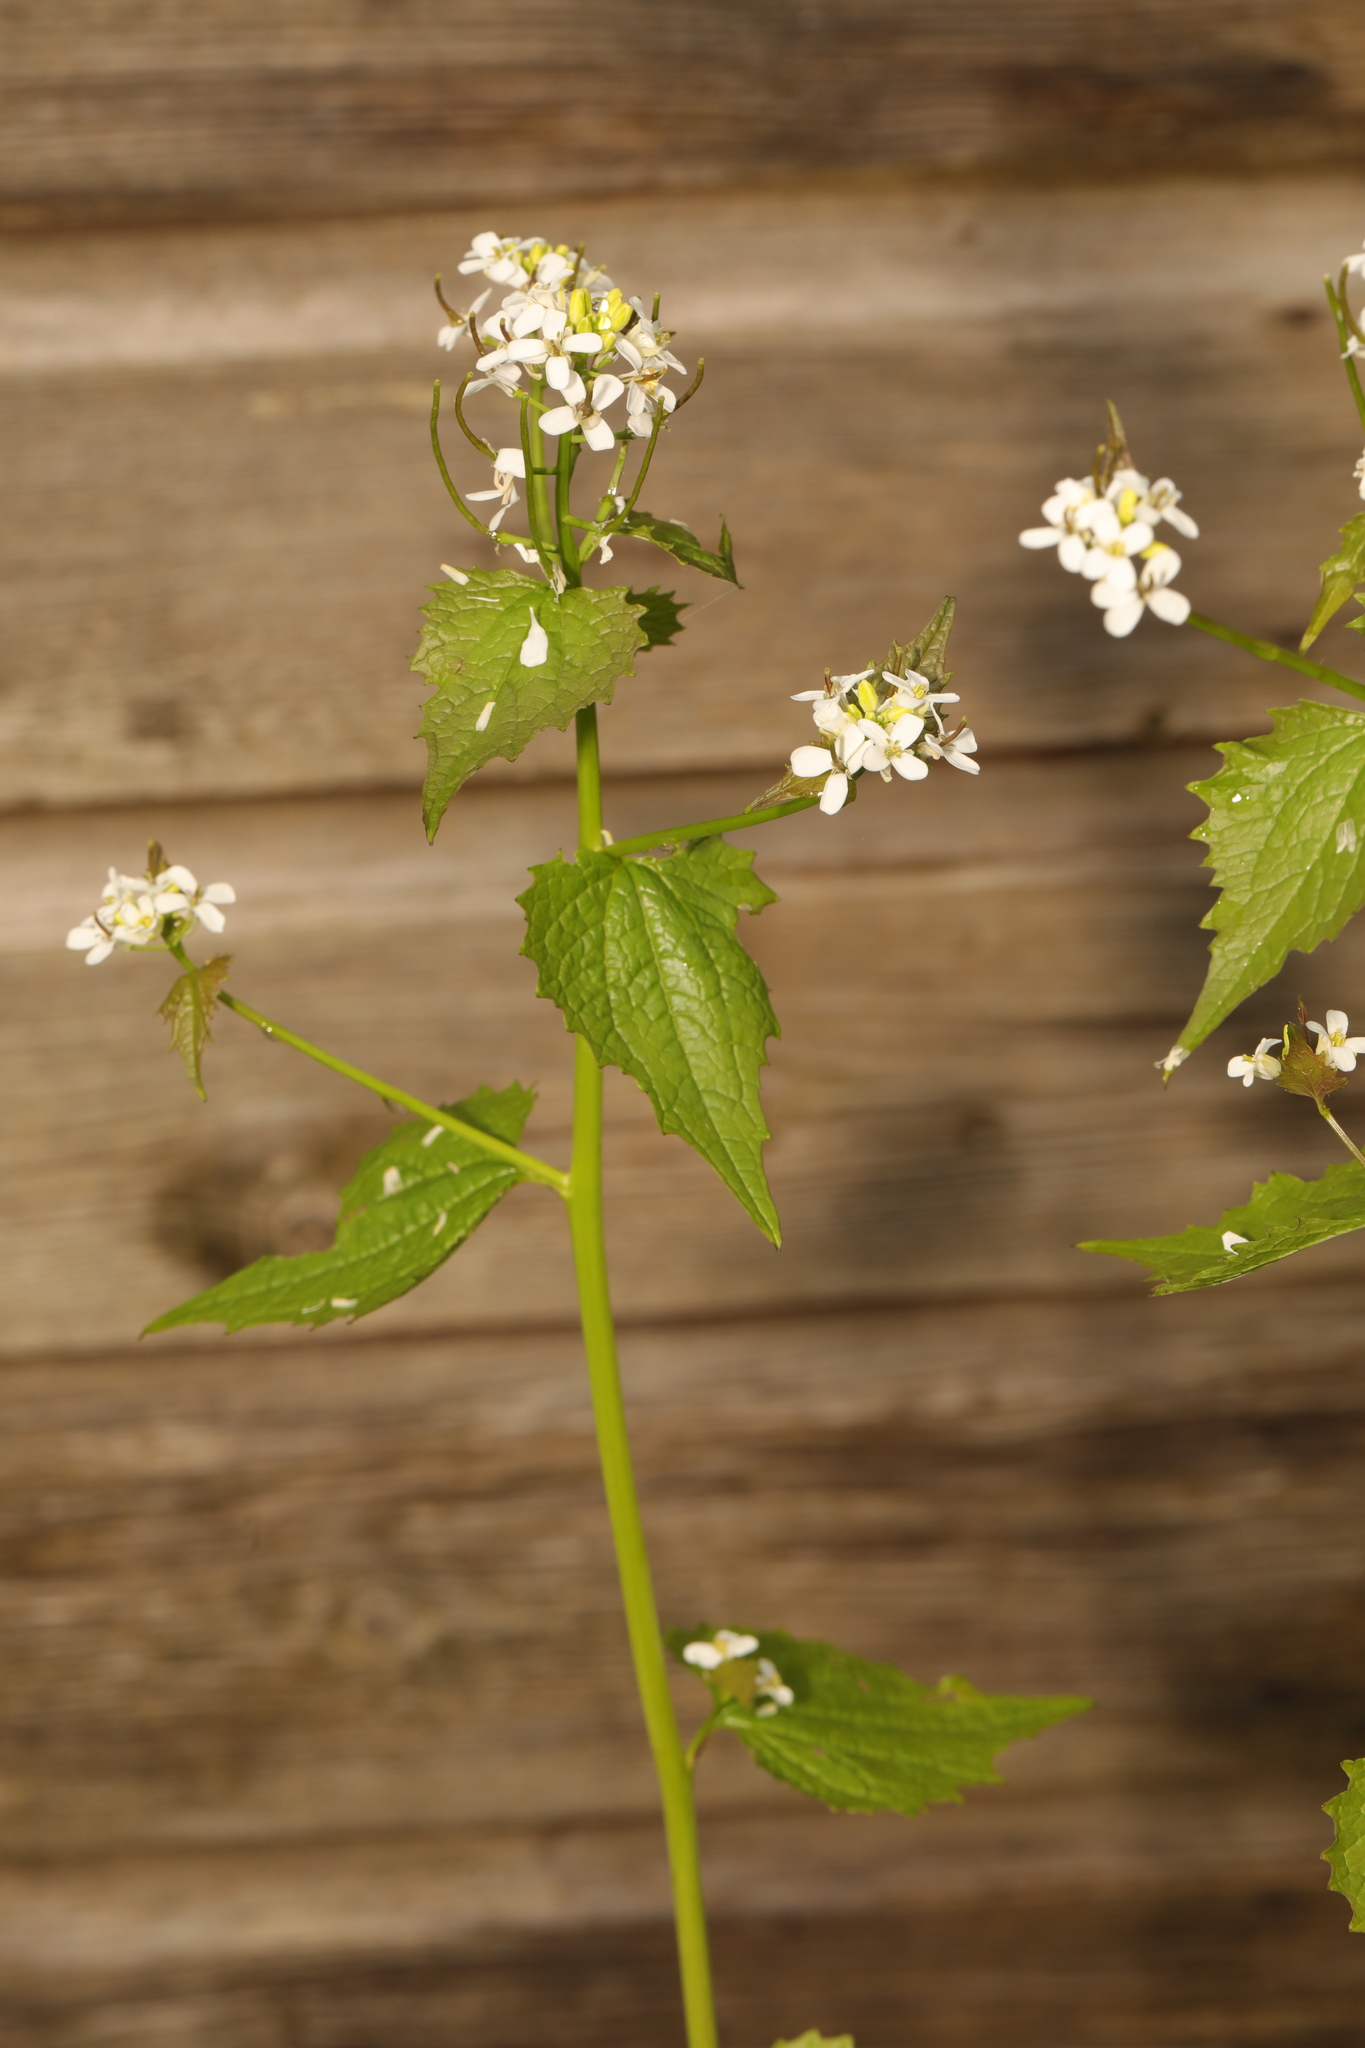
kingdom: Plantae
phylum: Tracheophyta
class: Magnoliopsida
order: Brassicales
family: Brassicaceae
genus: Alliaria
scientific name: Alliaria petiolata
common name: Garlic mustard
